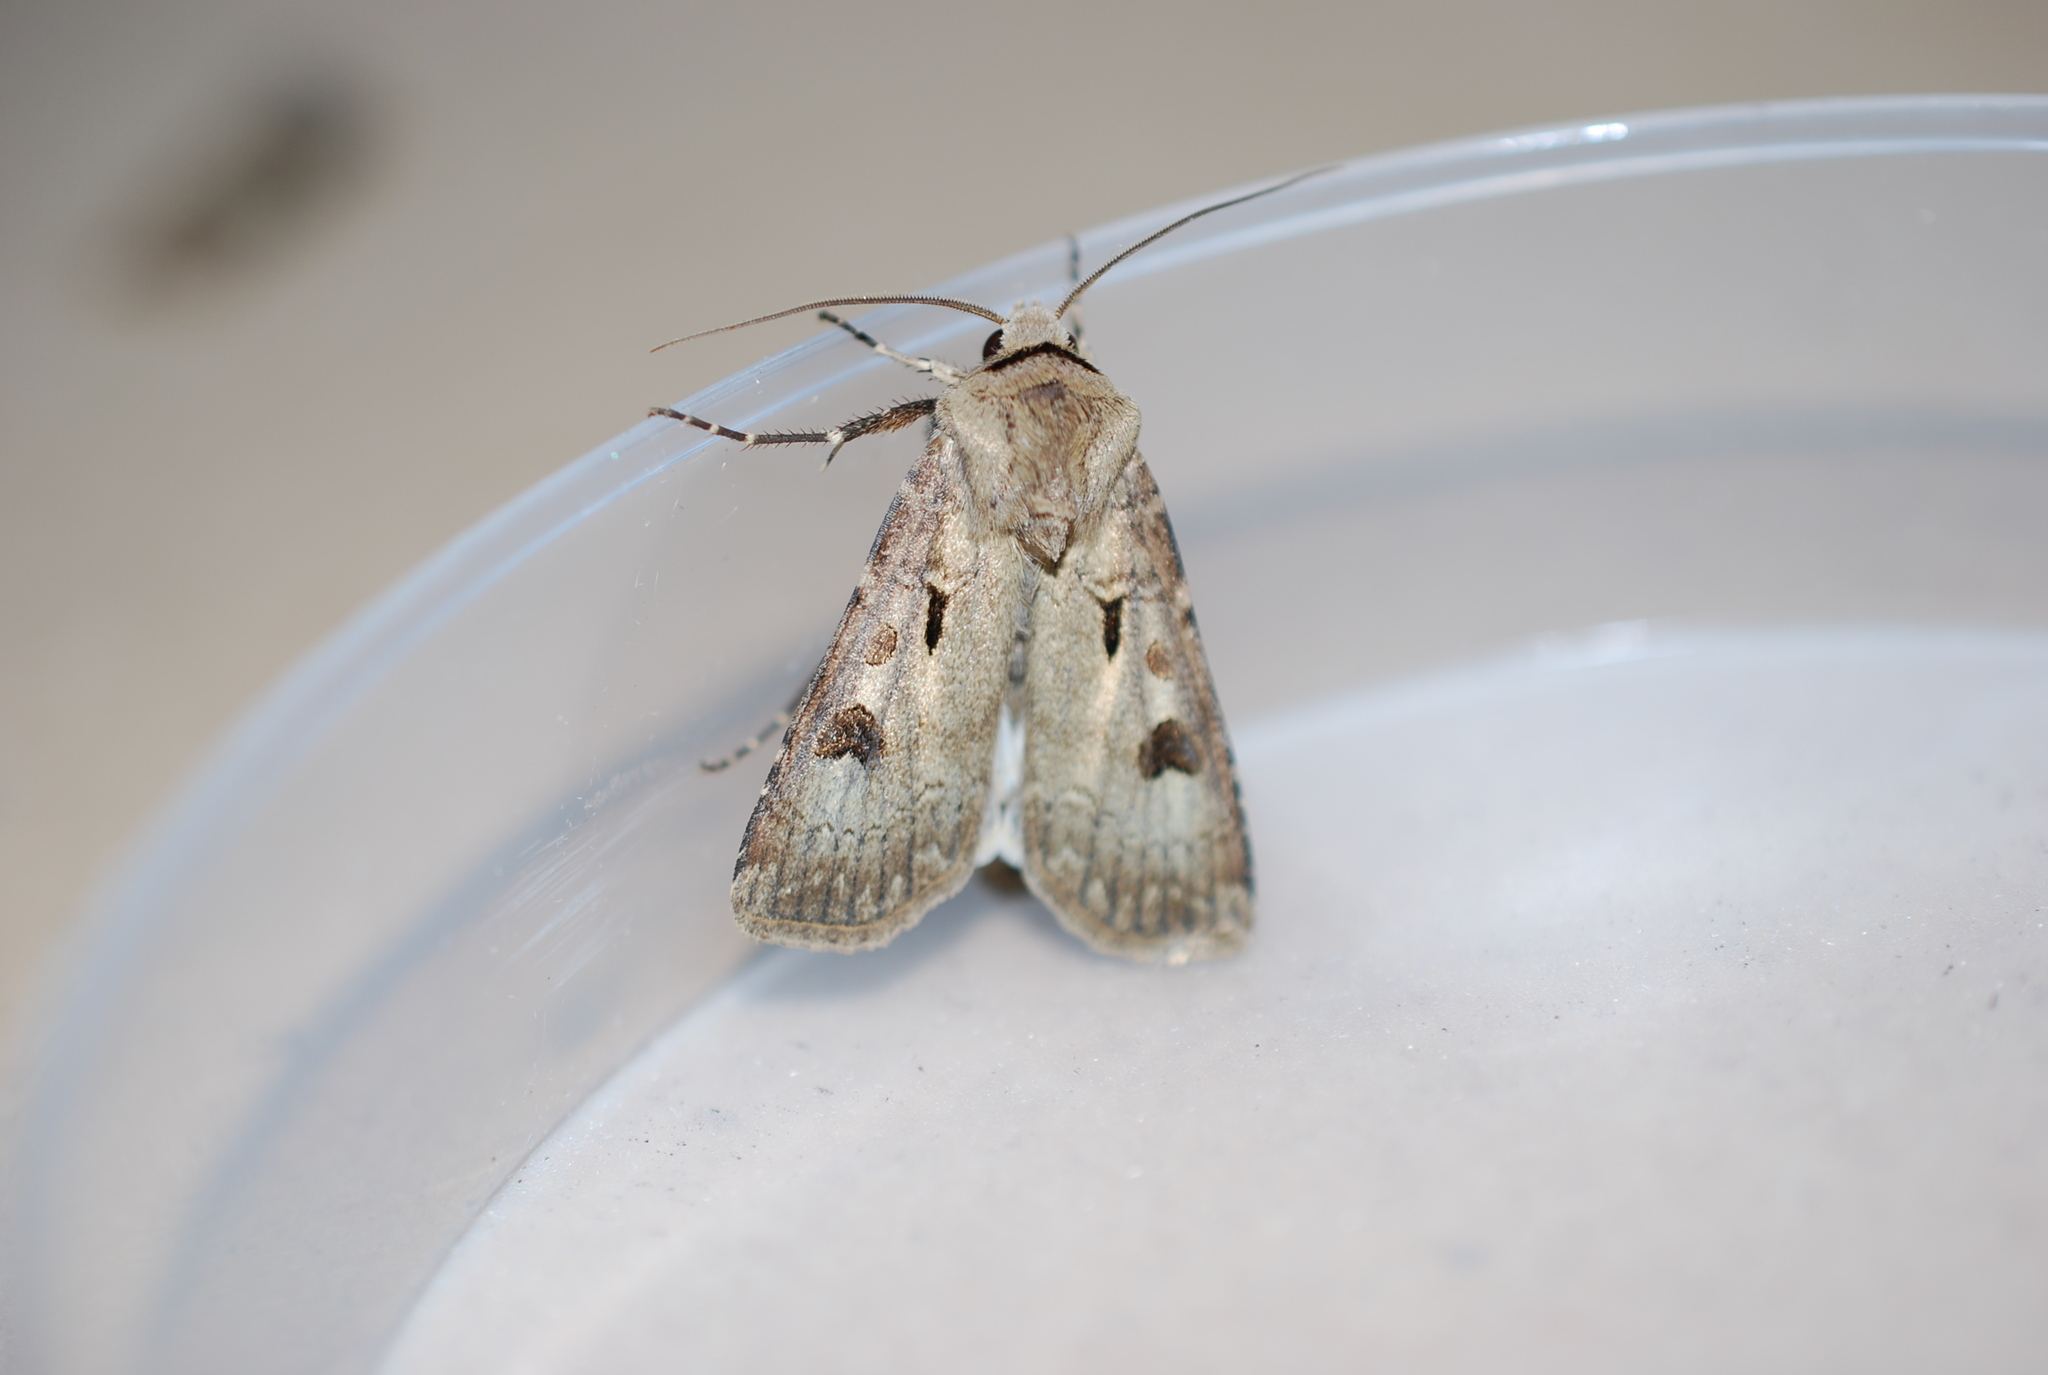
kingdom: Animalia
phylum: Arthropoda
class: Insecta
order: Lepidoptera
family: Noctuidae
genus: Agrotis
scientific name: Agrotis exclamationis
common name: Heart and dart
